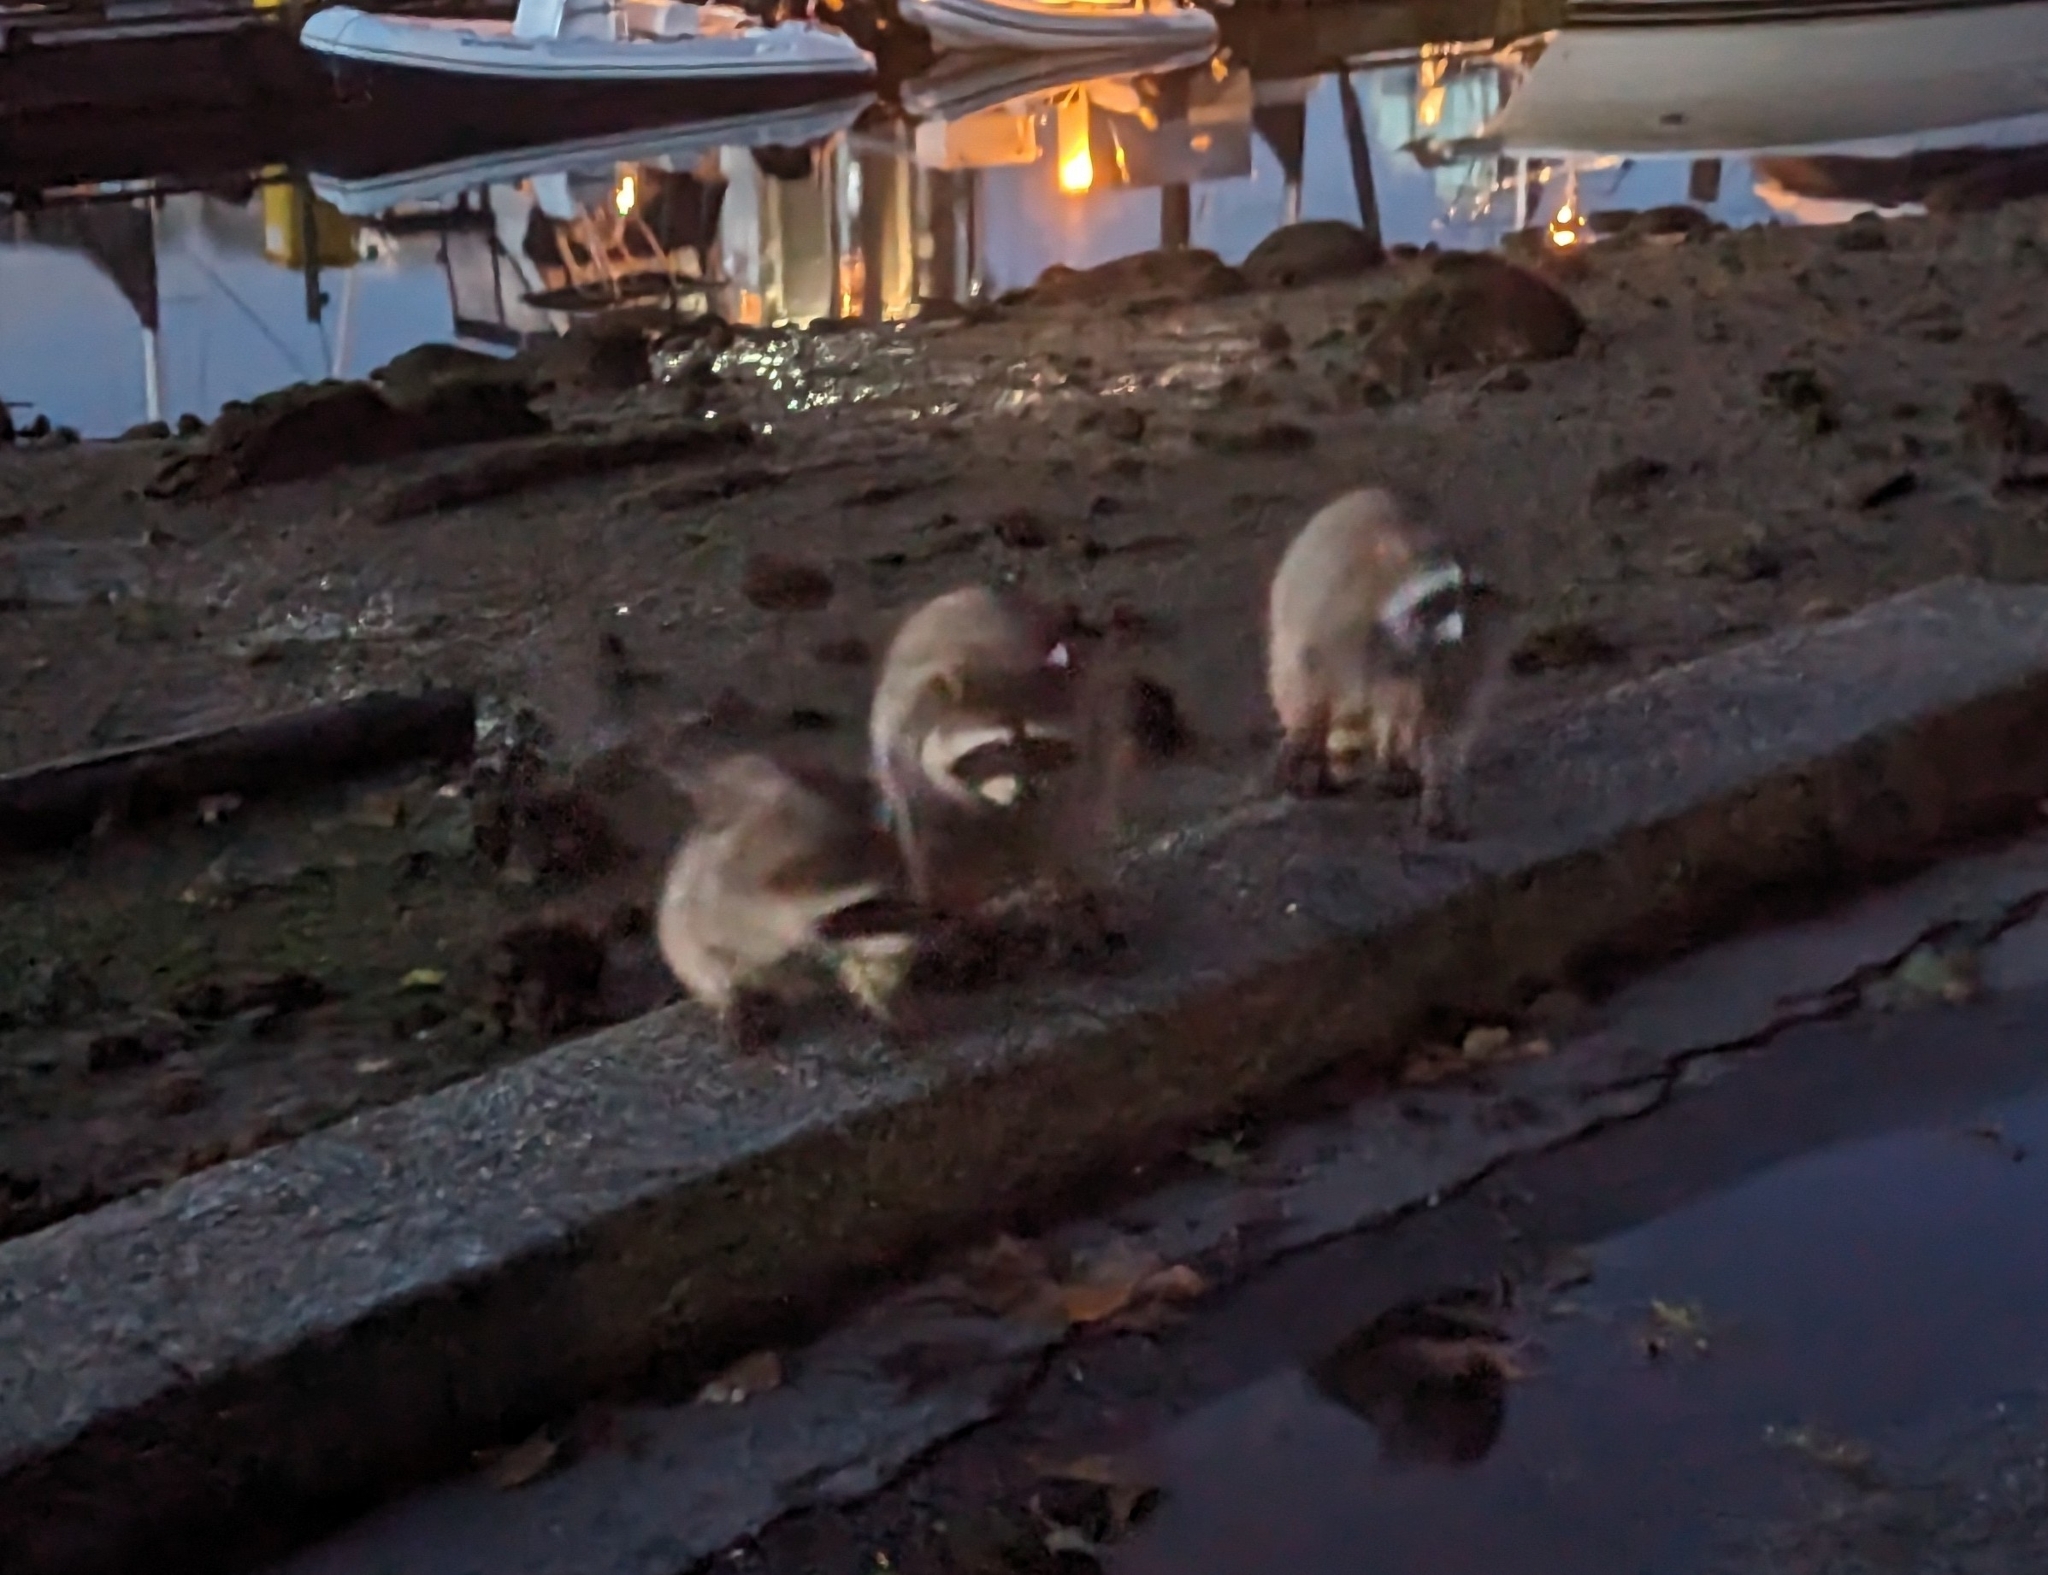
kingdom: Animalia
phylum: Chordata
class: Mammalia
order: Carnivora
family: Procyonidae
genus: Procyon
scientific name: Procyon lotor
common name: Raccoon
